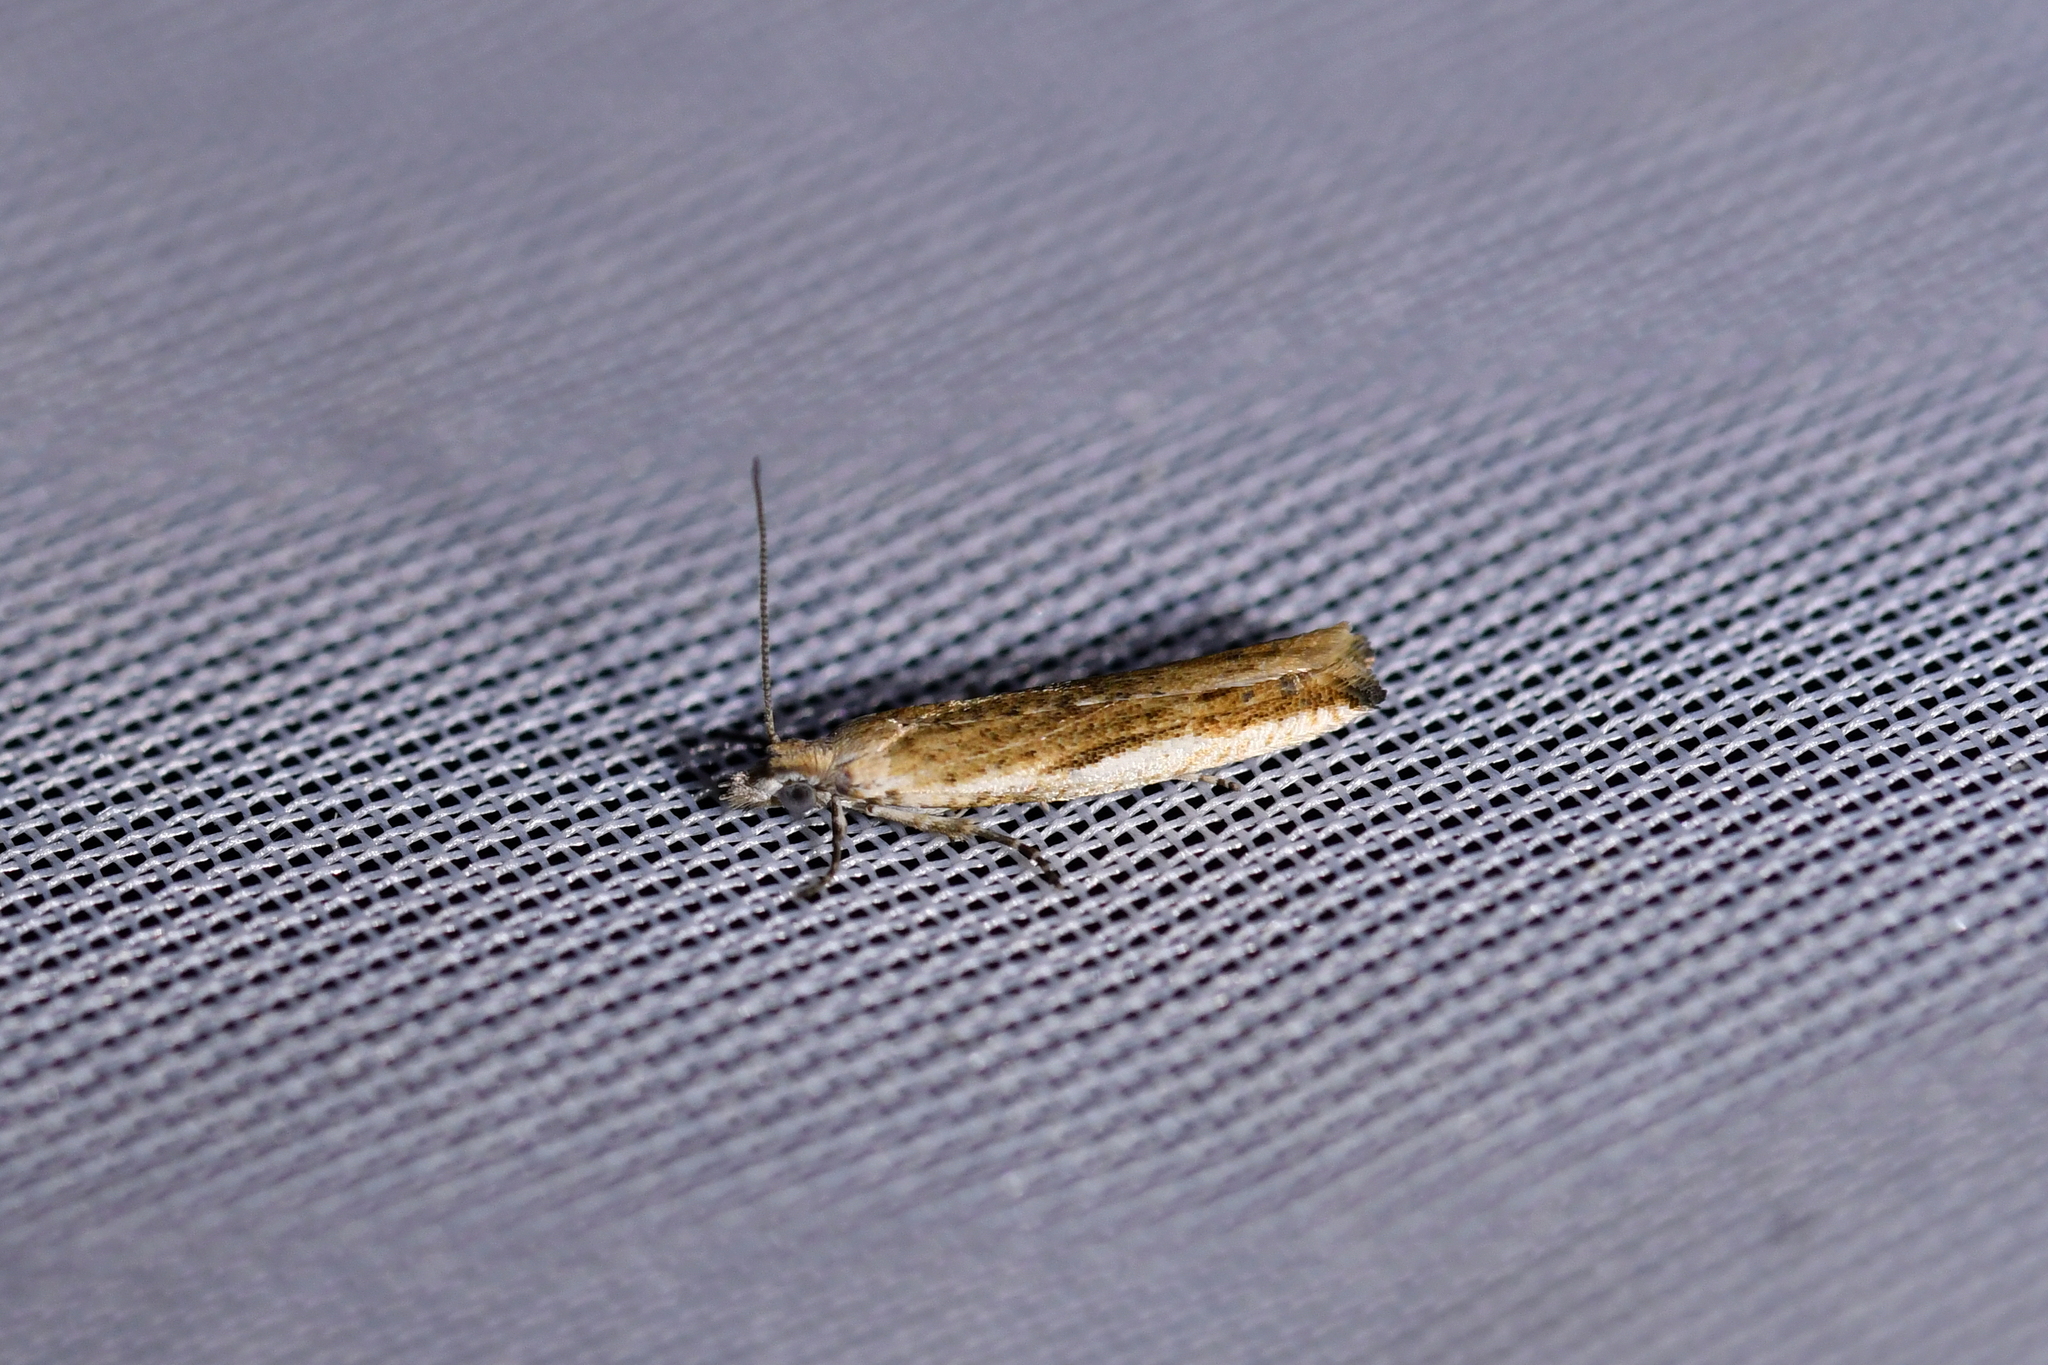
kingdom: Animalia
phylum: Arthropoda
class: Insecta
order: Lepidoptera
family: Tortricidae
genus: Holocola
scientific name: Holocola
